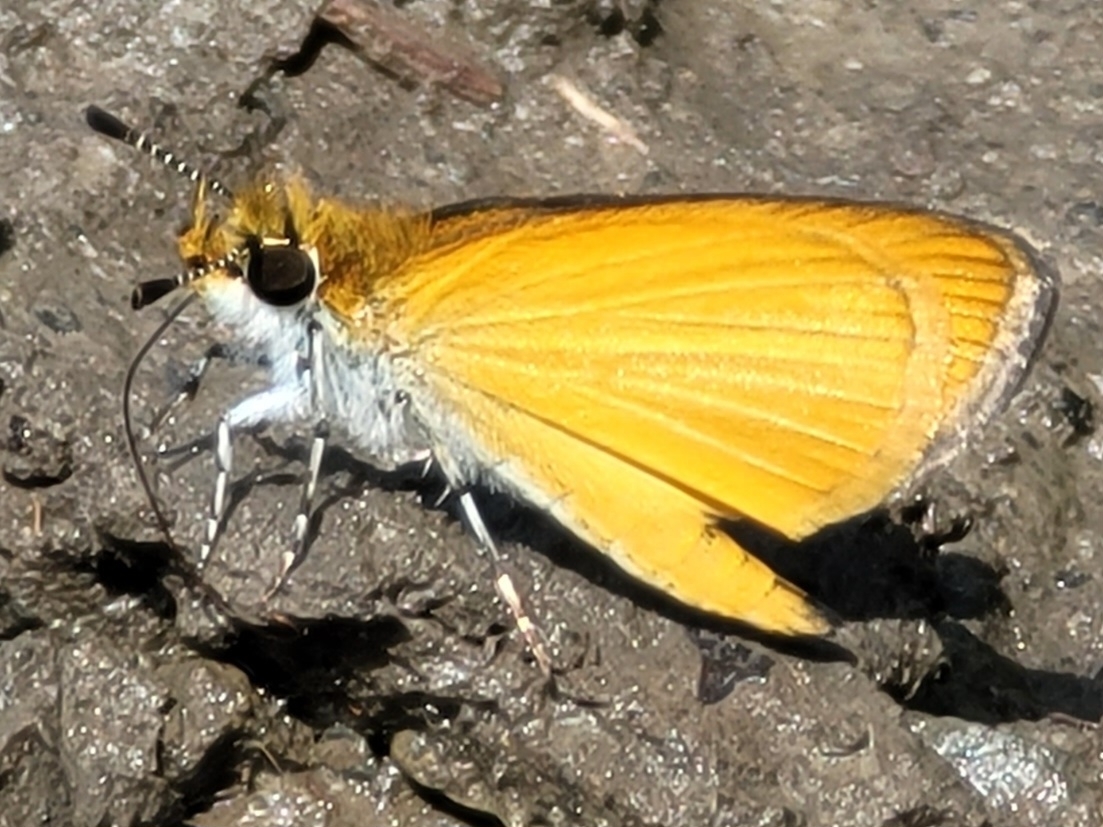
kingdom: Animalia
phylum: Arthropoda
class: Insecta
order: Lepidoptera
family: Hesperiidae
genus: Ancyloxypha
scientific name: Ancyloxypha numitor
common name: Least skipper
